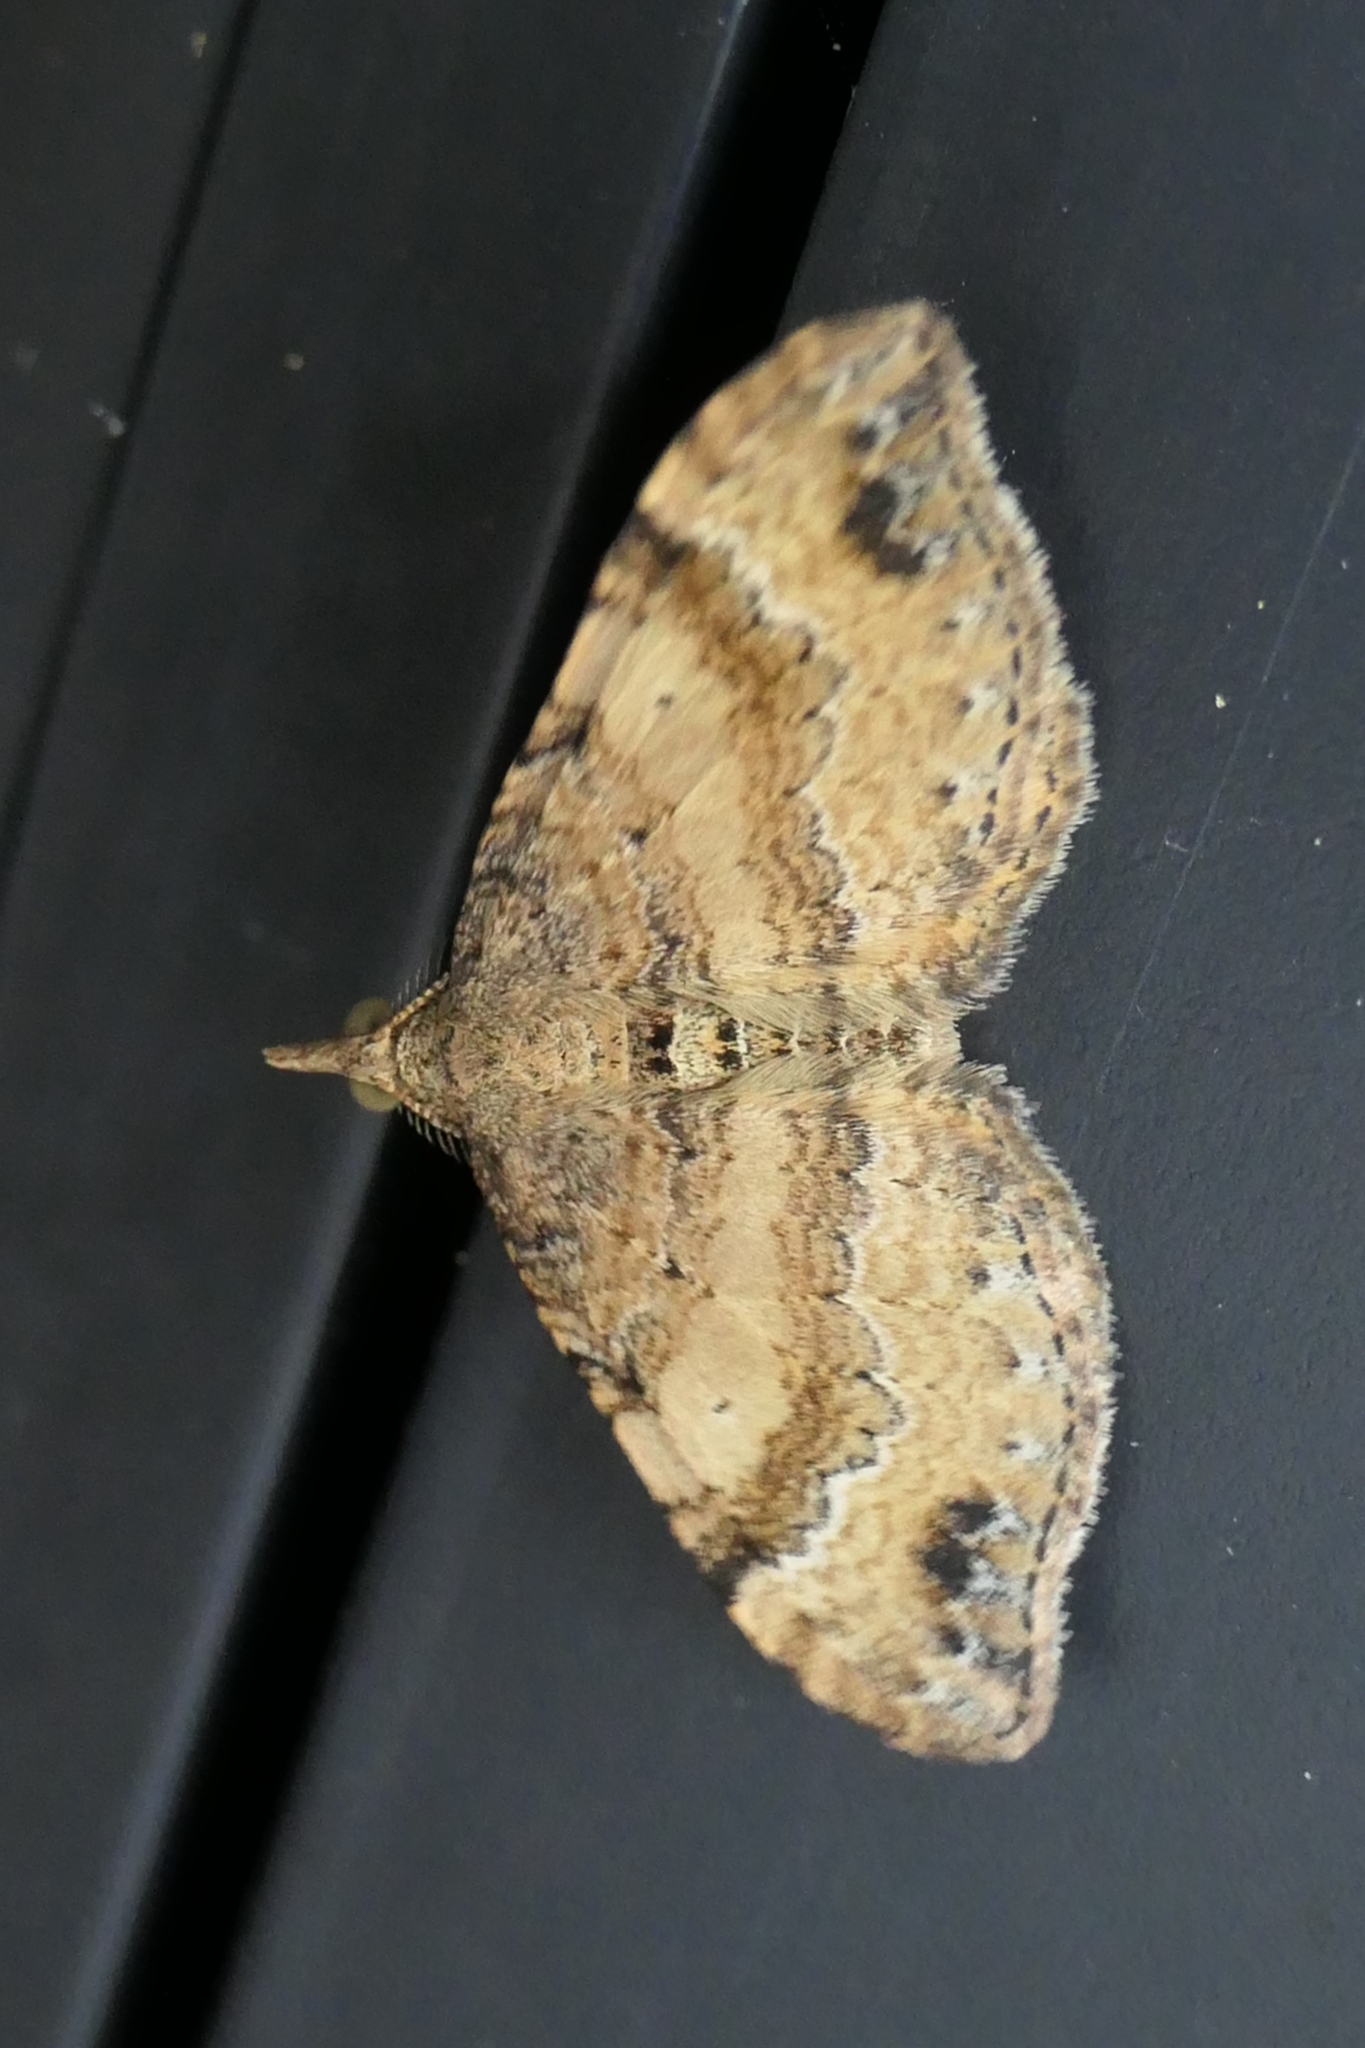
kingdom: Animalia
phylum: Arthropoda
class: Insecta
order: Lepidoptera
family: Geometridae
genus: Homodotis
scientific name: Homodotis megaspilata
